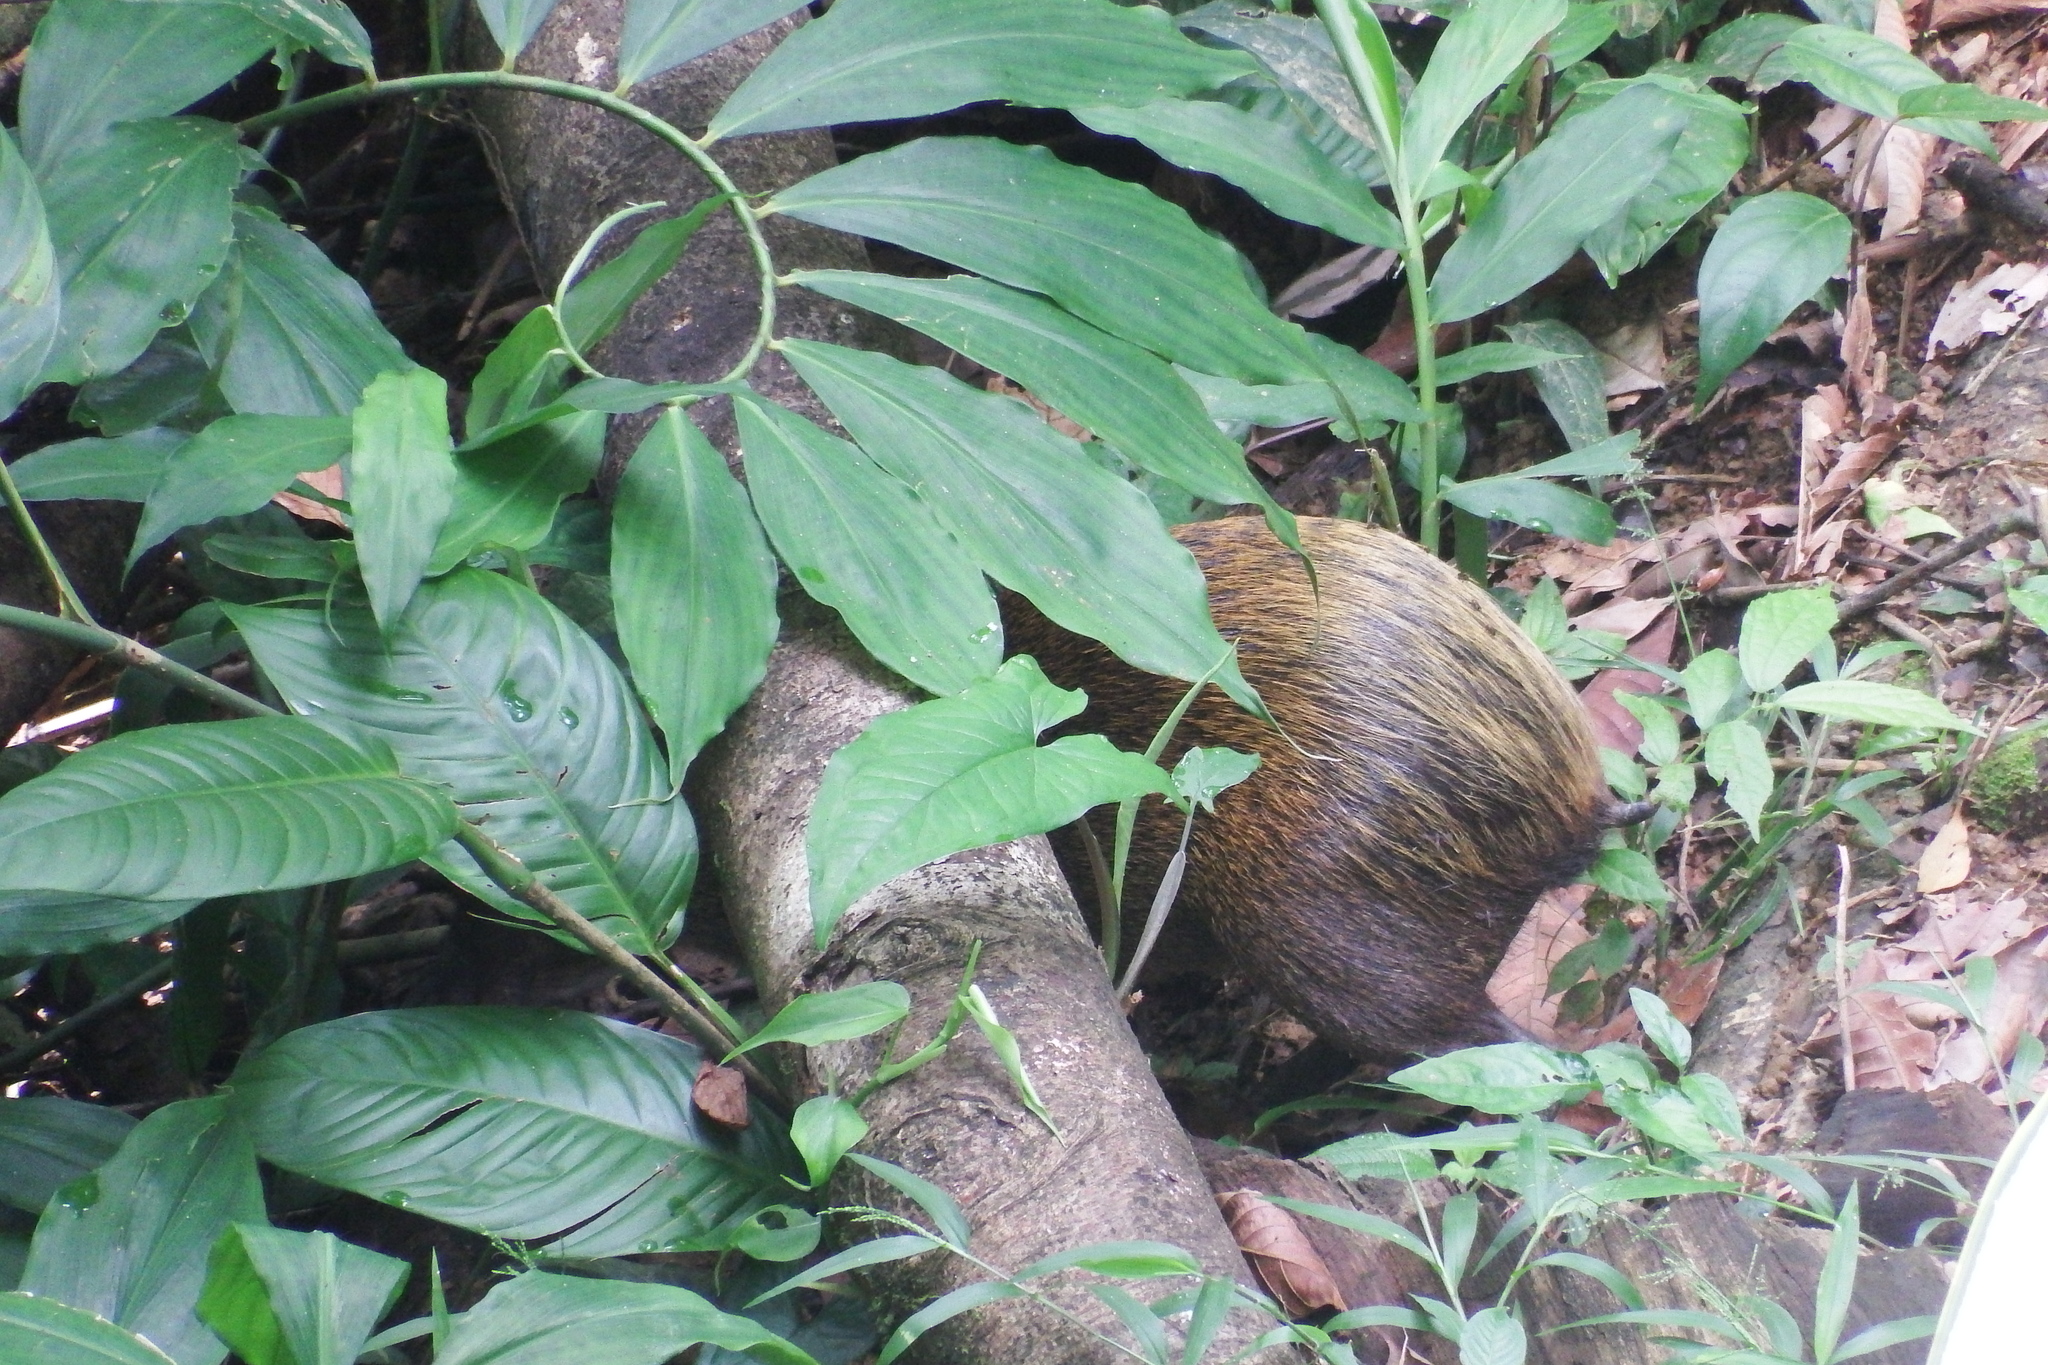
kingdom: Animalia
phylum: Chordata
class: Mammalia
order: Rodentia
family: Dasyproctidae
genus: Dasyprocta
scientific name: Dasyprocta punctata
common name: Central american agouti
